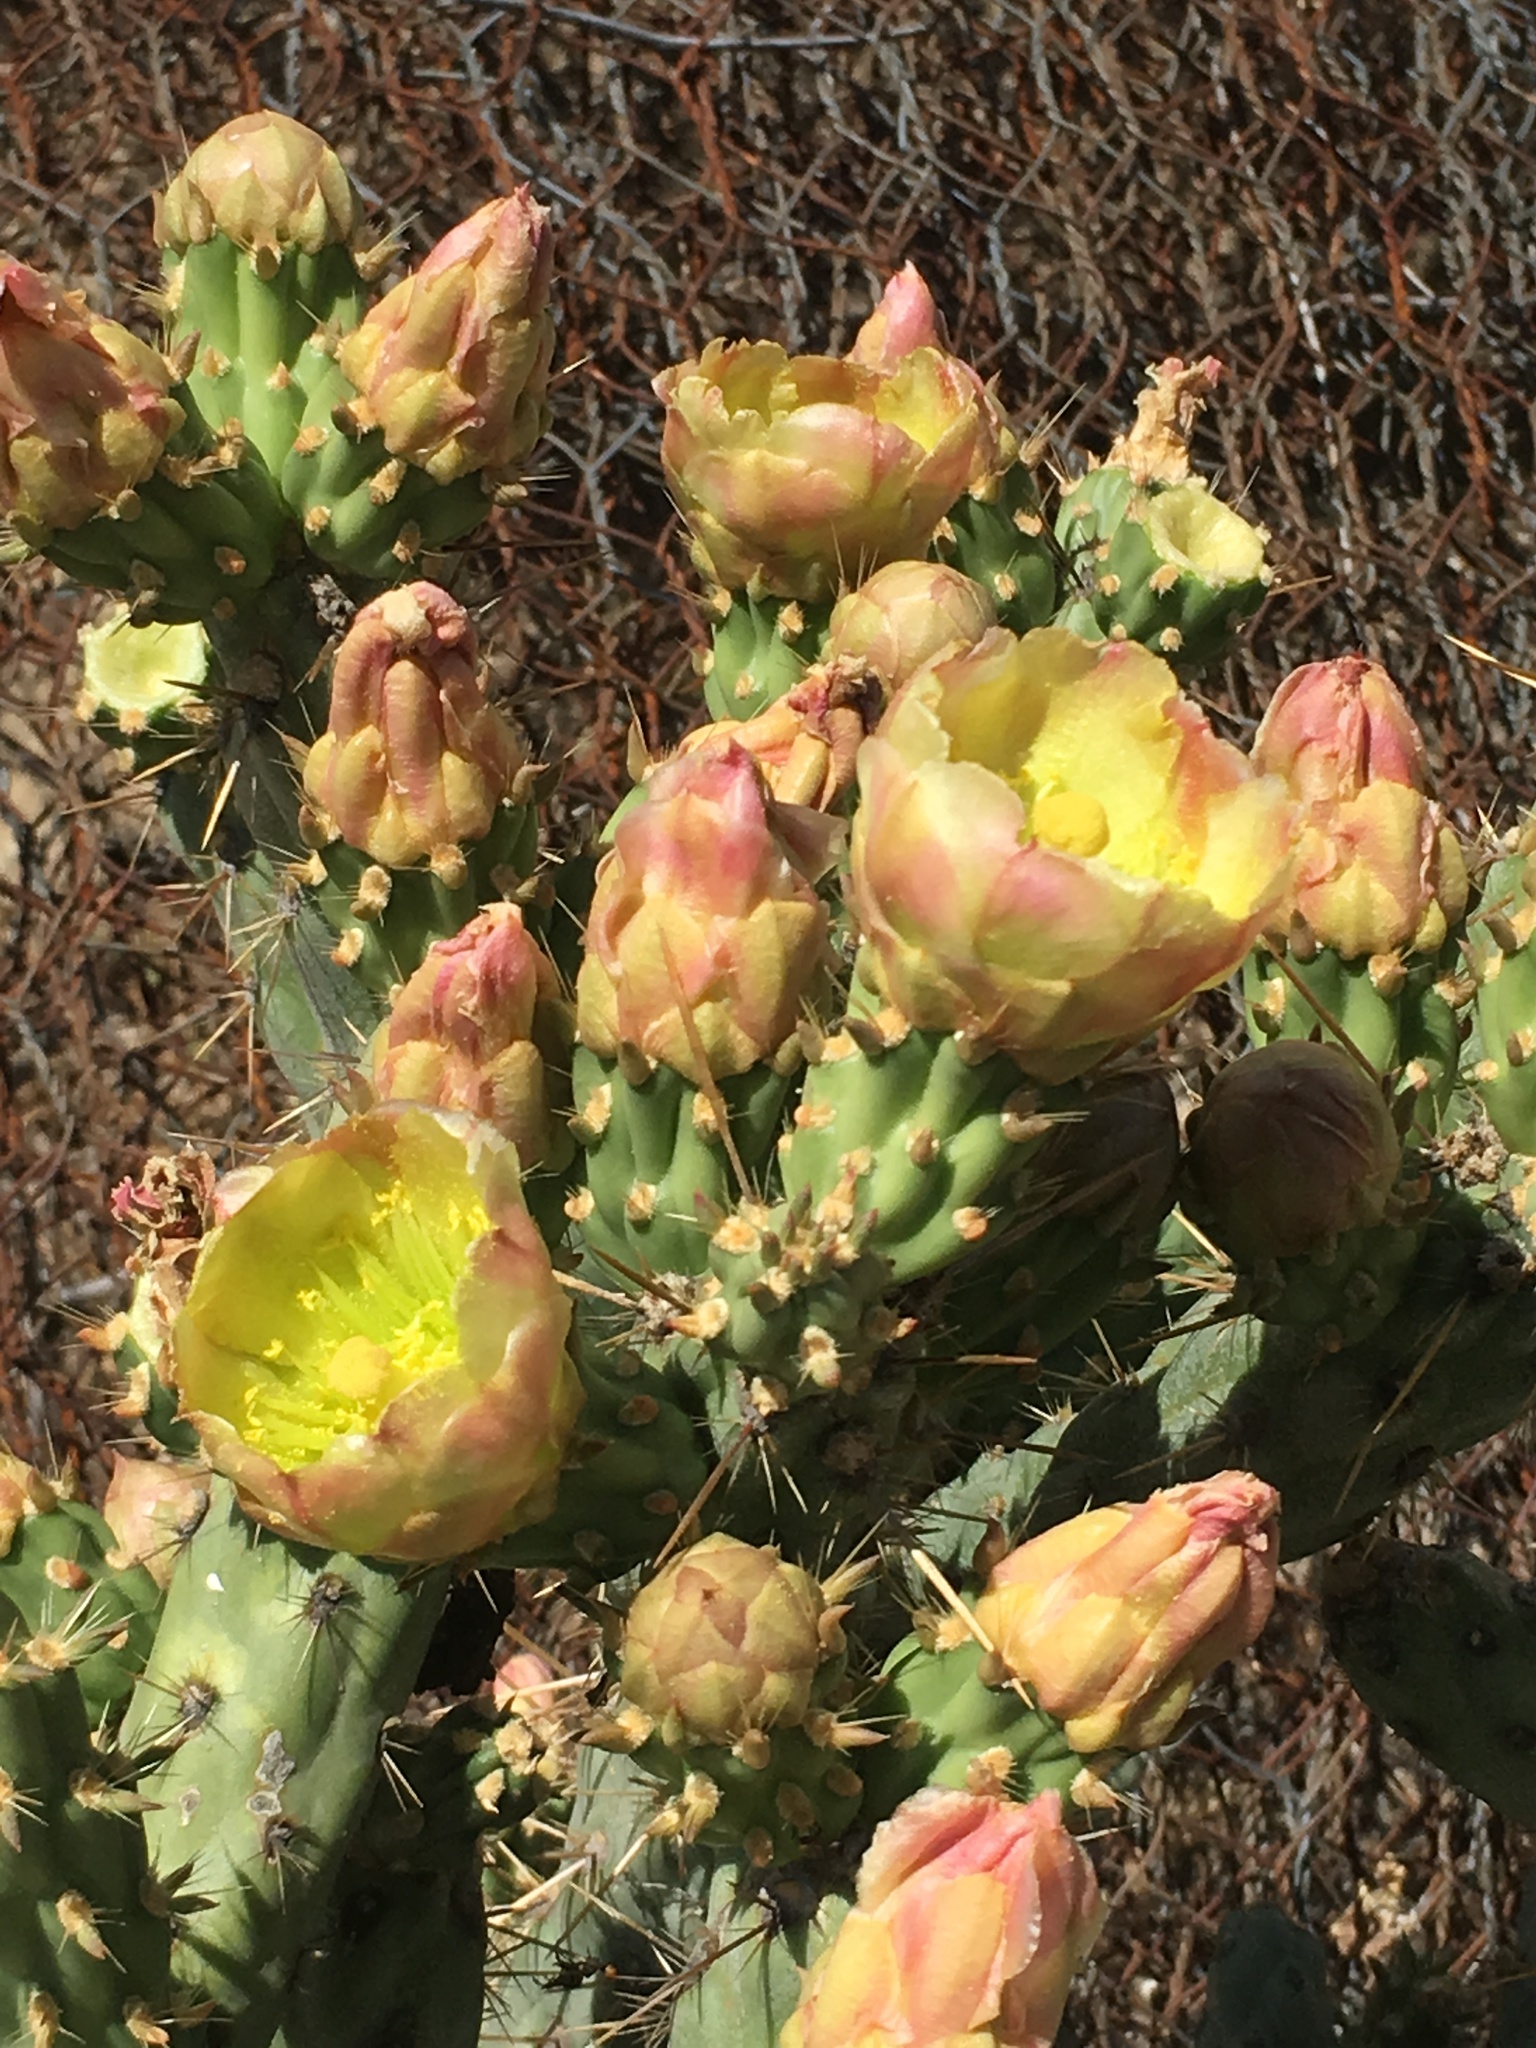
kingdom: Plantae
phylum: Tracheophyta
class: Magnoliopsida
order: Caryophyllales
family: Cactaceae
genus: Cylindropuntia
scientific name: Cylindropuntia bernardina
